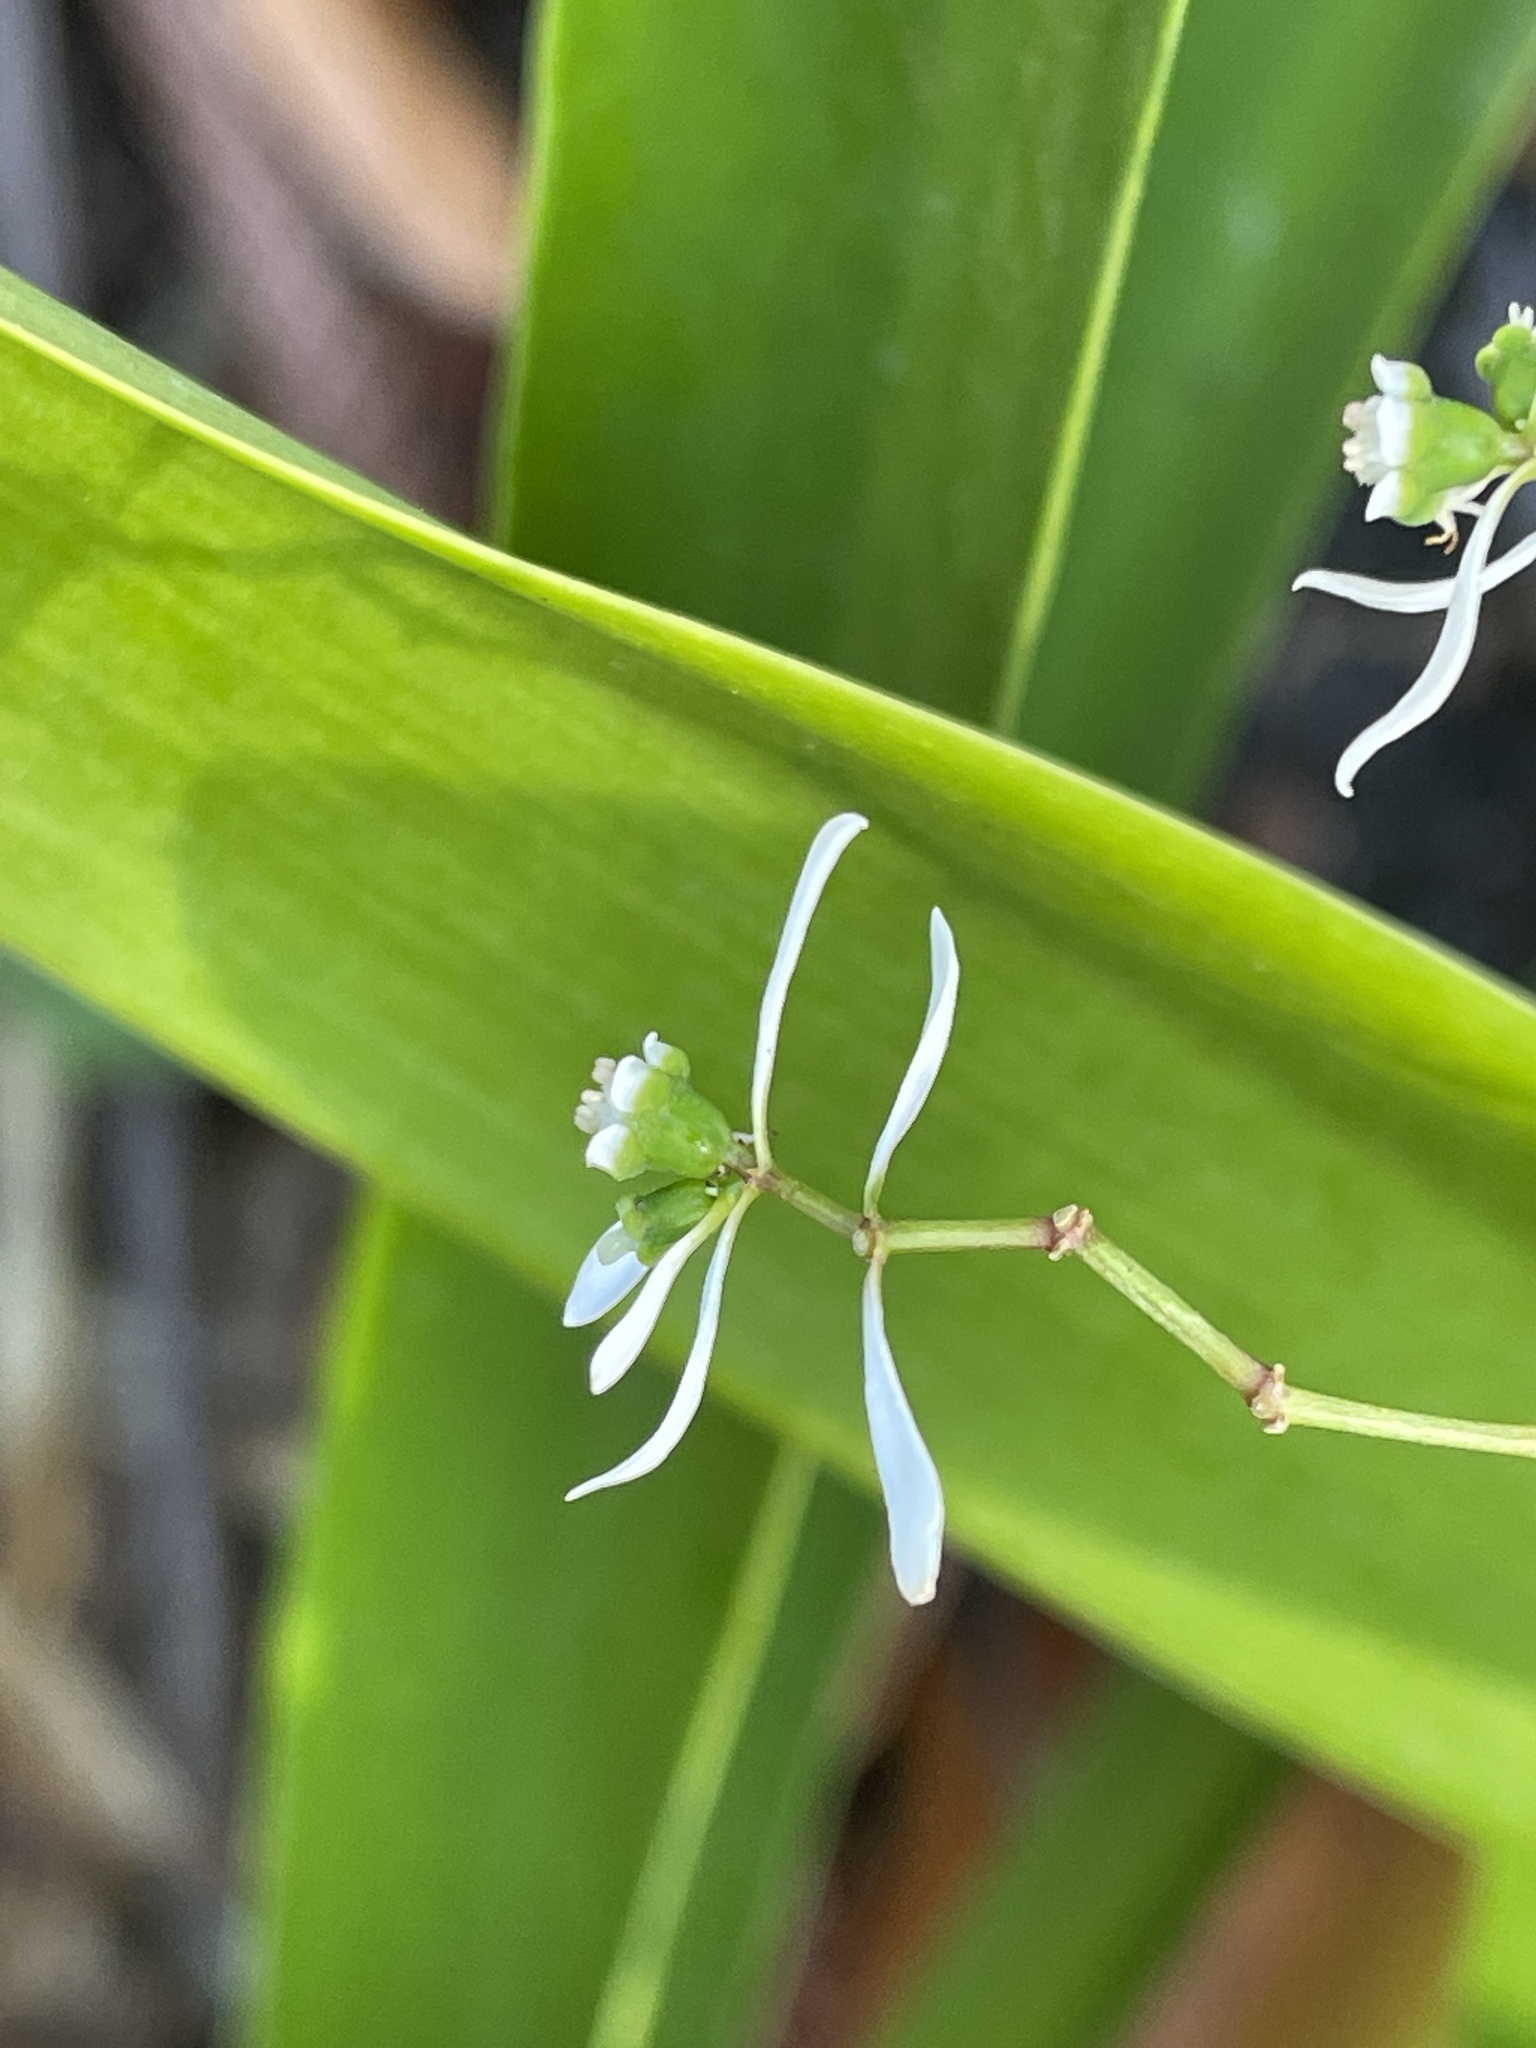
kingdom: Plantae
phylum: Tracheophyta
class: Magnoliopsida
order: Malpighiales
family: Euphorbiaceae
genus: Euphorbia
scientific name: Euphorbia graminea
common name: Grassleaf spurge
